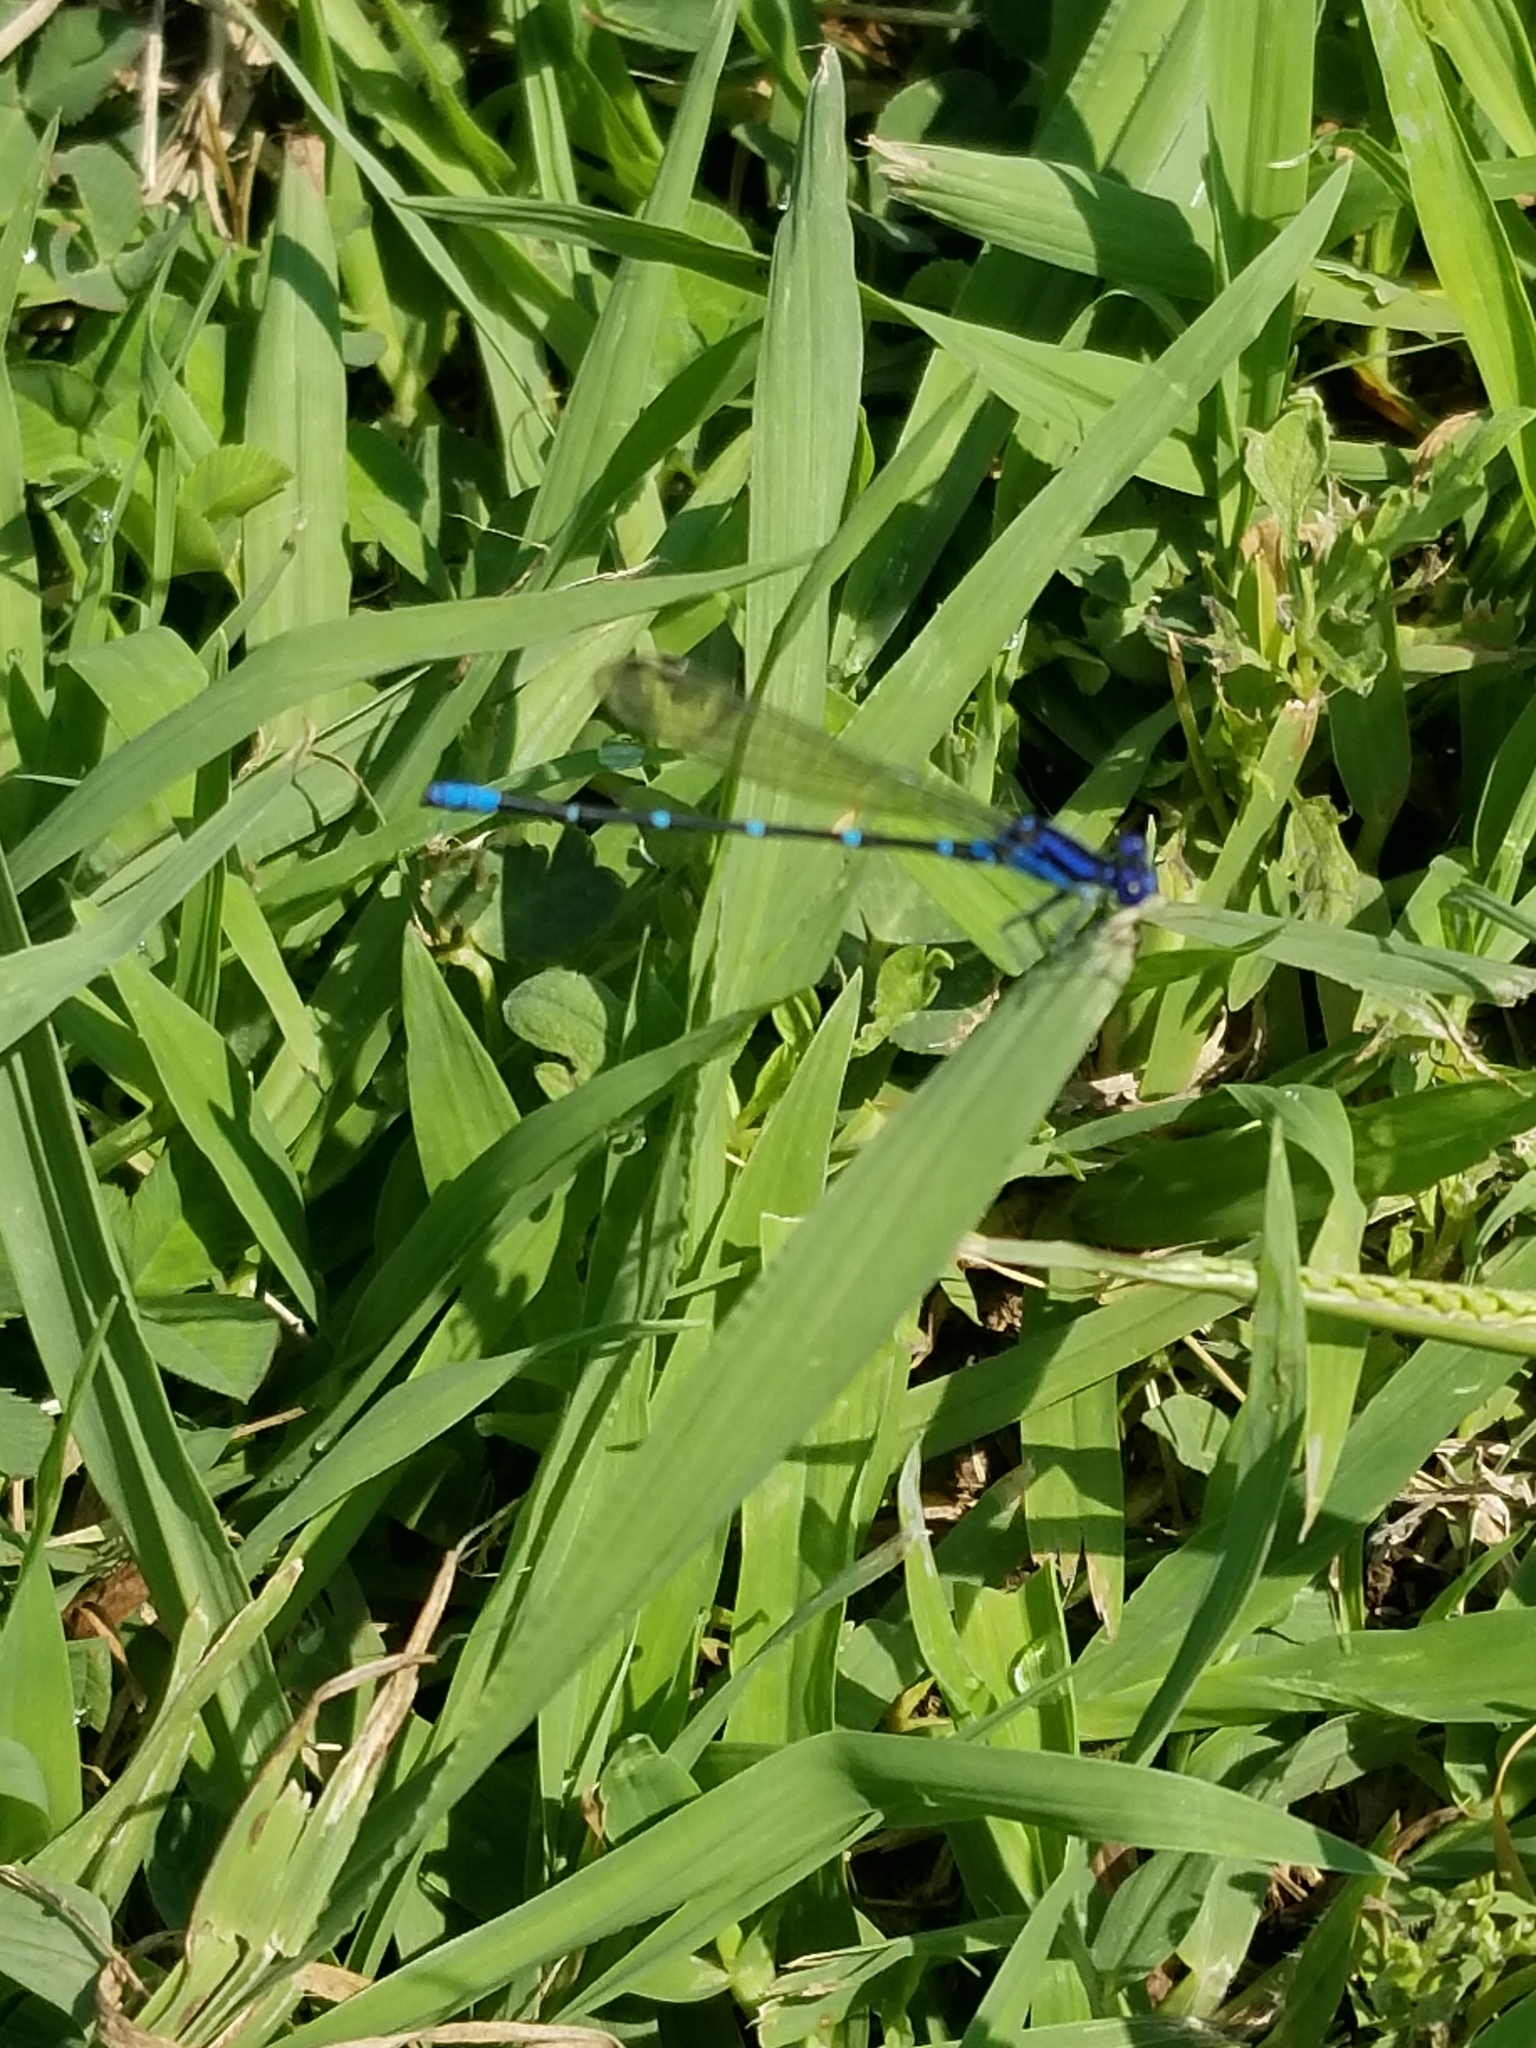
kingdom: Animalia
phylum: Arthropoda
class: Insecta
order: Odonata
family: Coenagrionidae
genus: Argia
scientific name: Argia sedula
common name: Blue-ringed dancer
